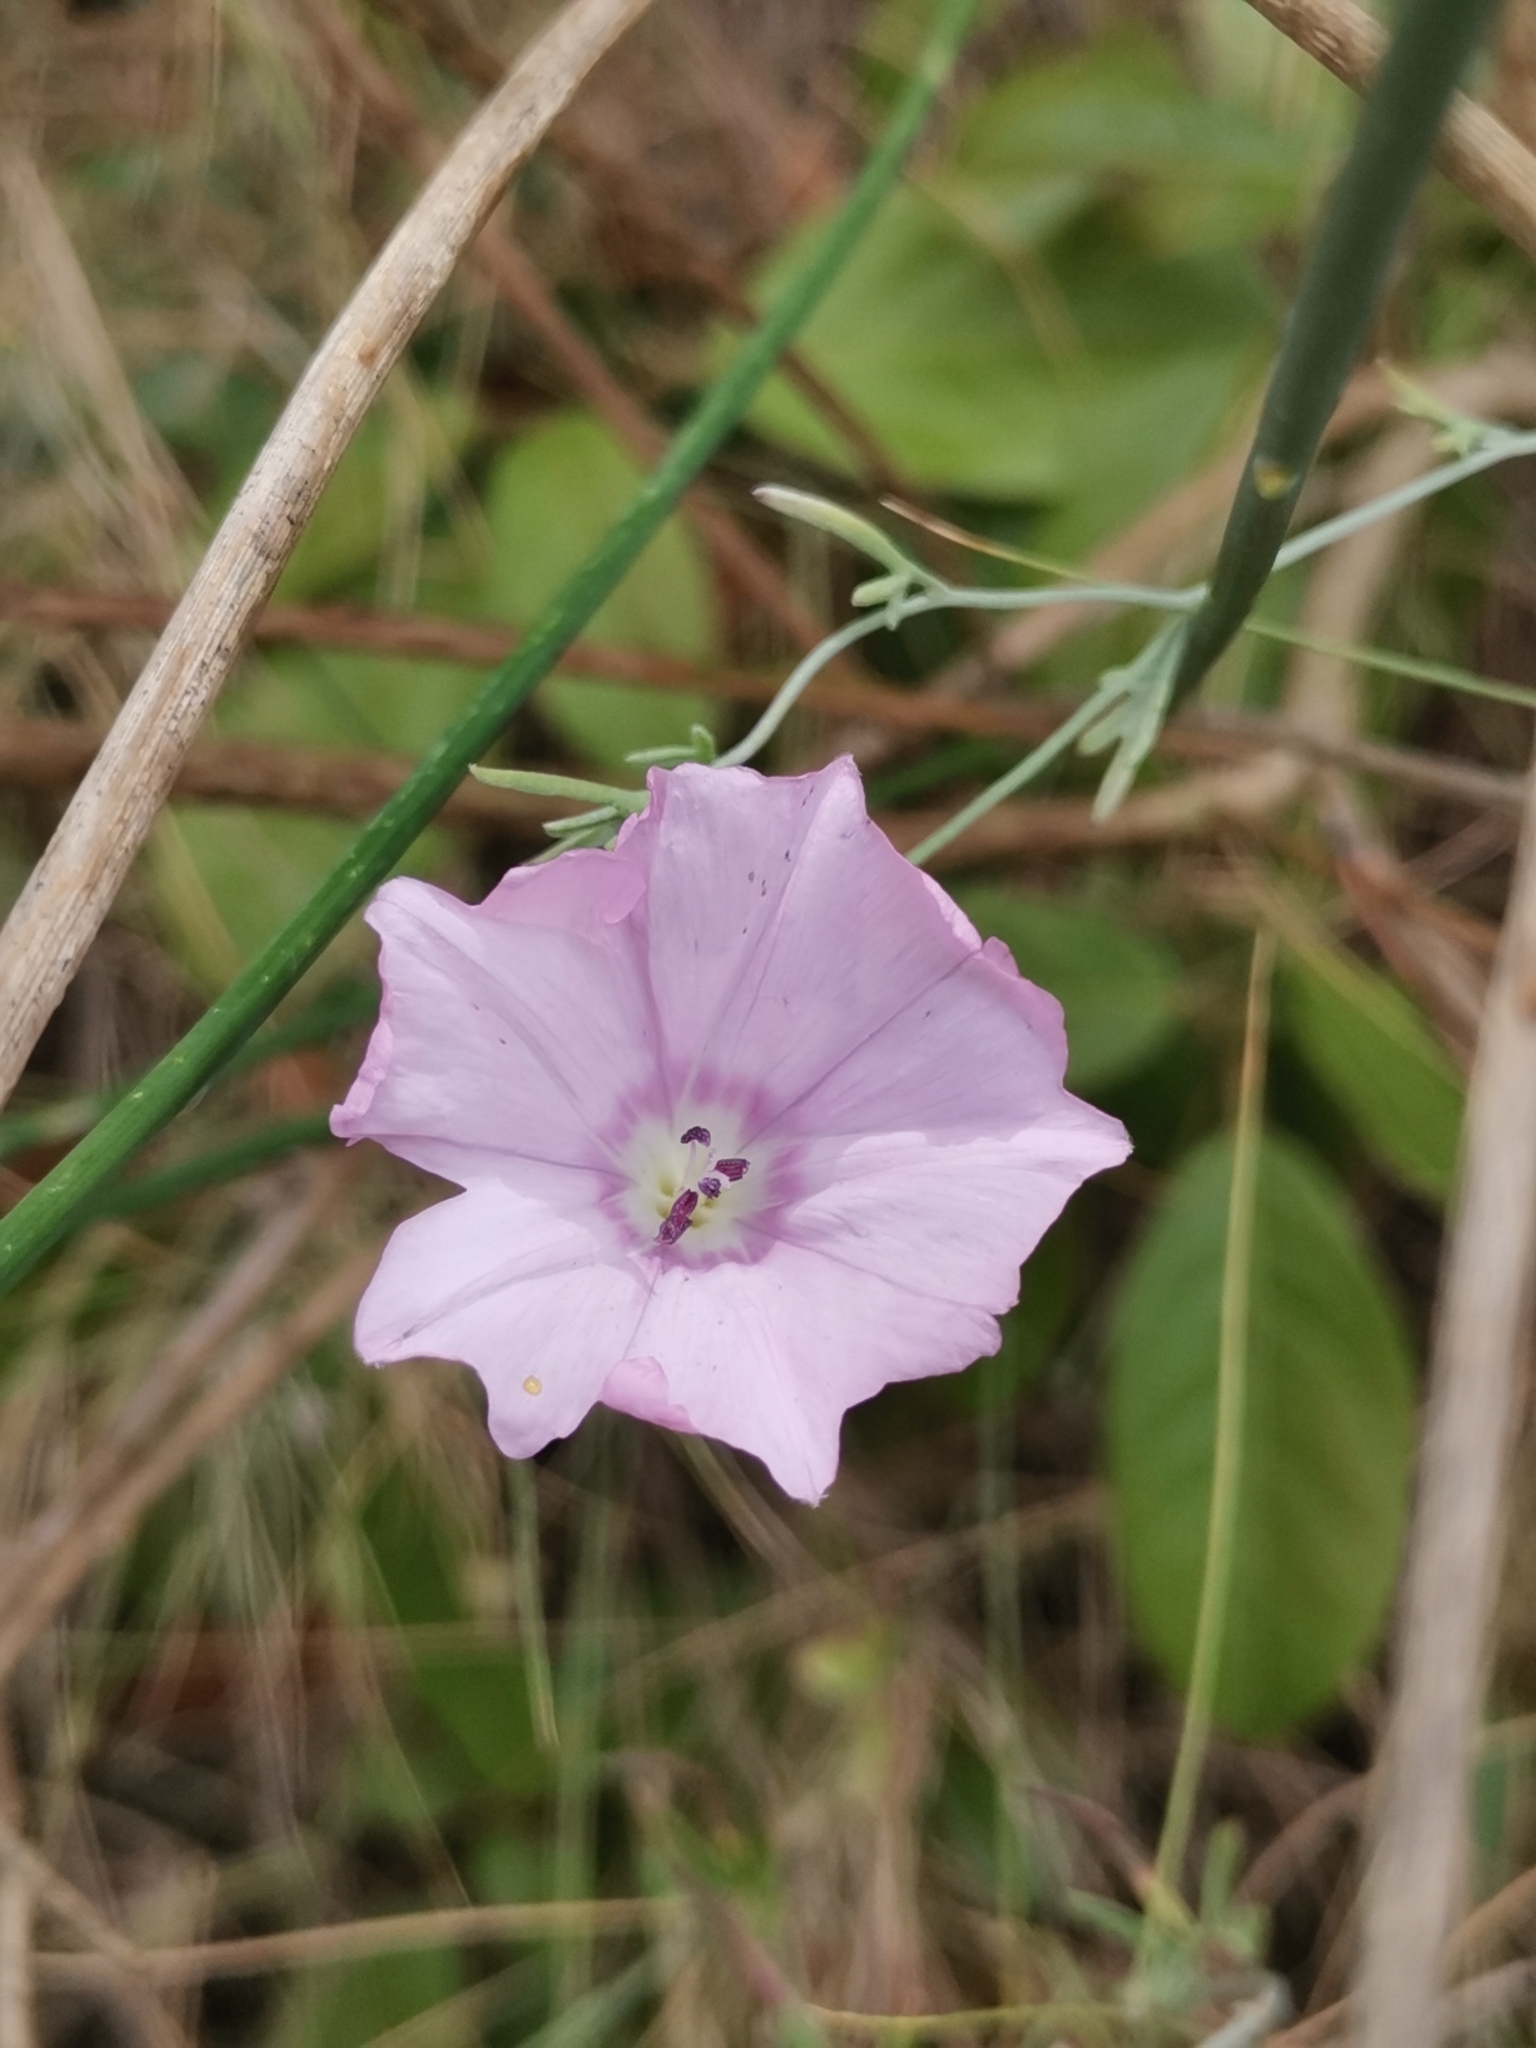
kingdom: Plantae
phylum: Tracheophyta
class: Magnoliopsida
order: Solanales
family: Convolvulaceae
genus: Convolvulus
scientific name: Convolvulus elegantissimus
